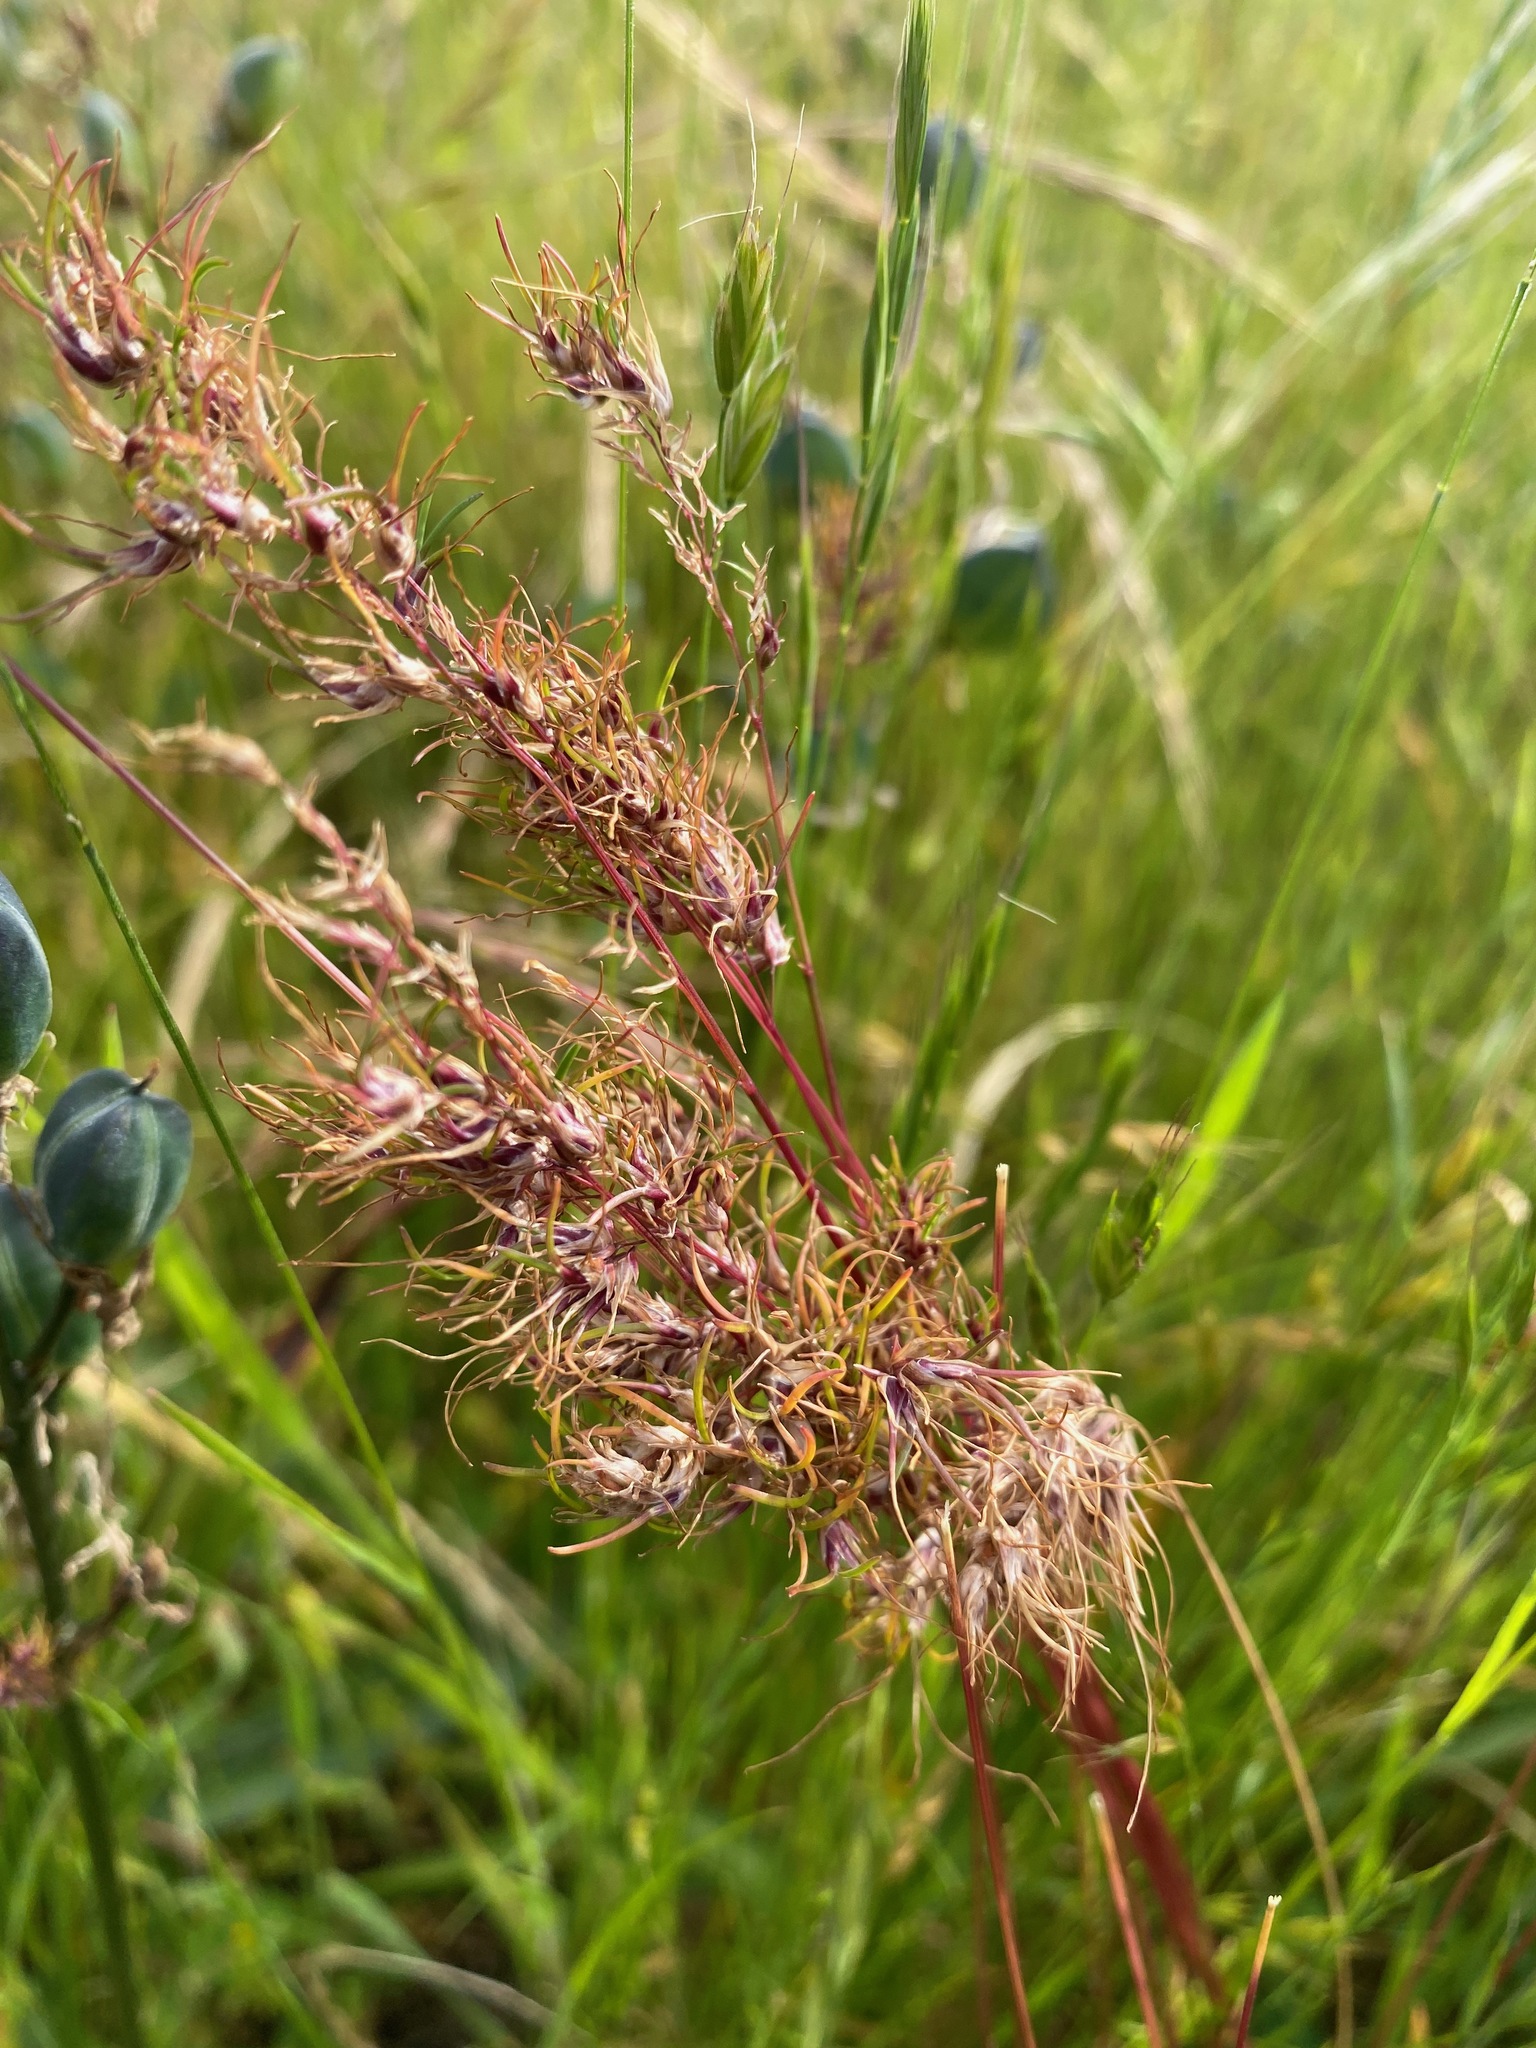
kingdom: Plantae
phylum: Tracheophyta
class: Liliopsida
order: Poales
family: Poaceae
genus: Poa
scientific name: Poa bulbosa
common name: Bulbous bluegrass
